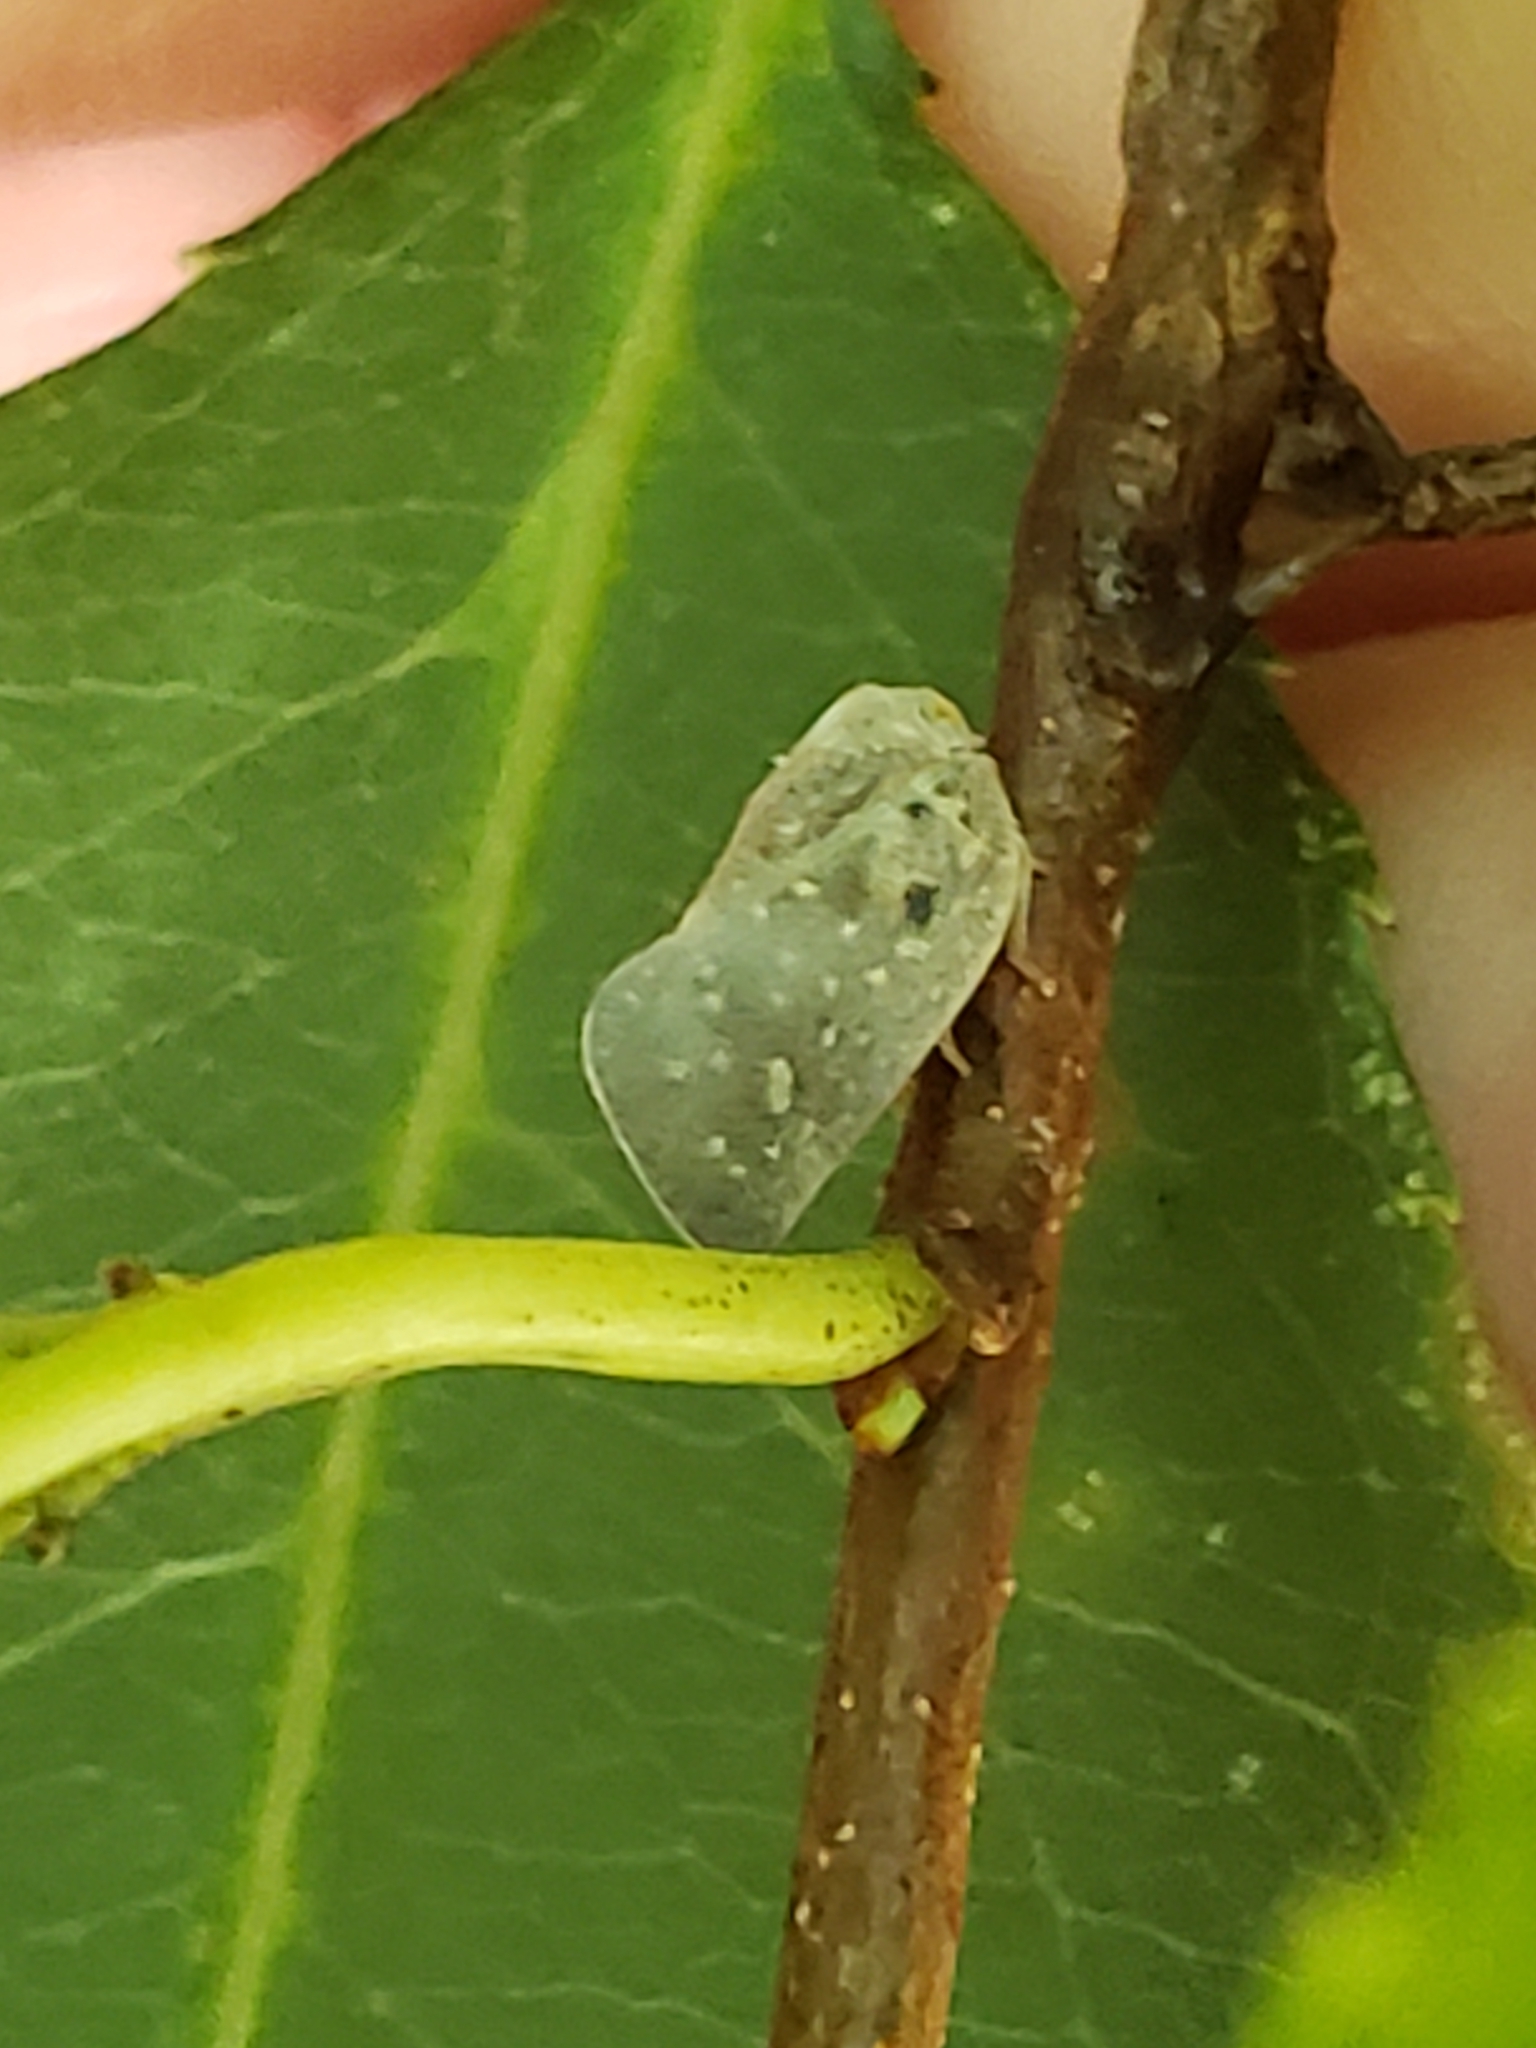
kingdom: Animalia
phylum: Arthropoda
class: Insecta
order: Hemiptera
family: Flatidae
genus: Metcalfa
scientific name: Metcalfa pruinosa
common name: Citrus flatid planthopper
